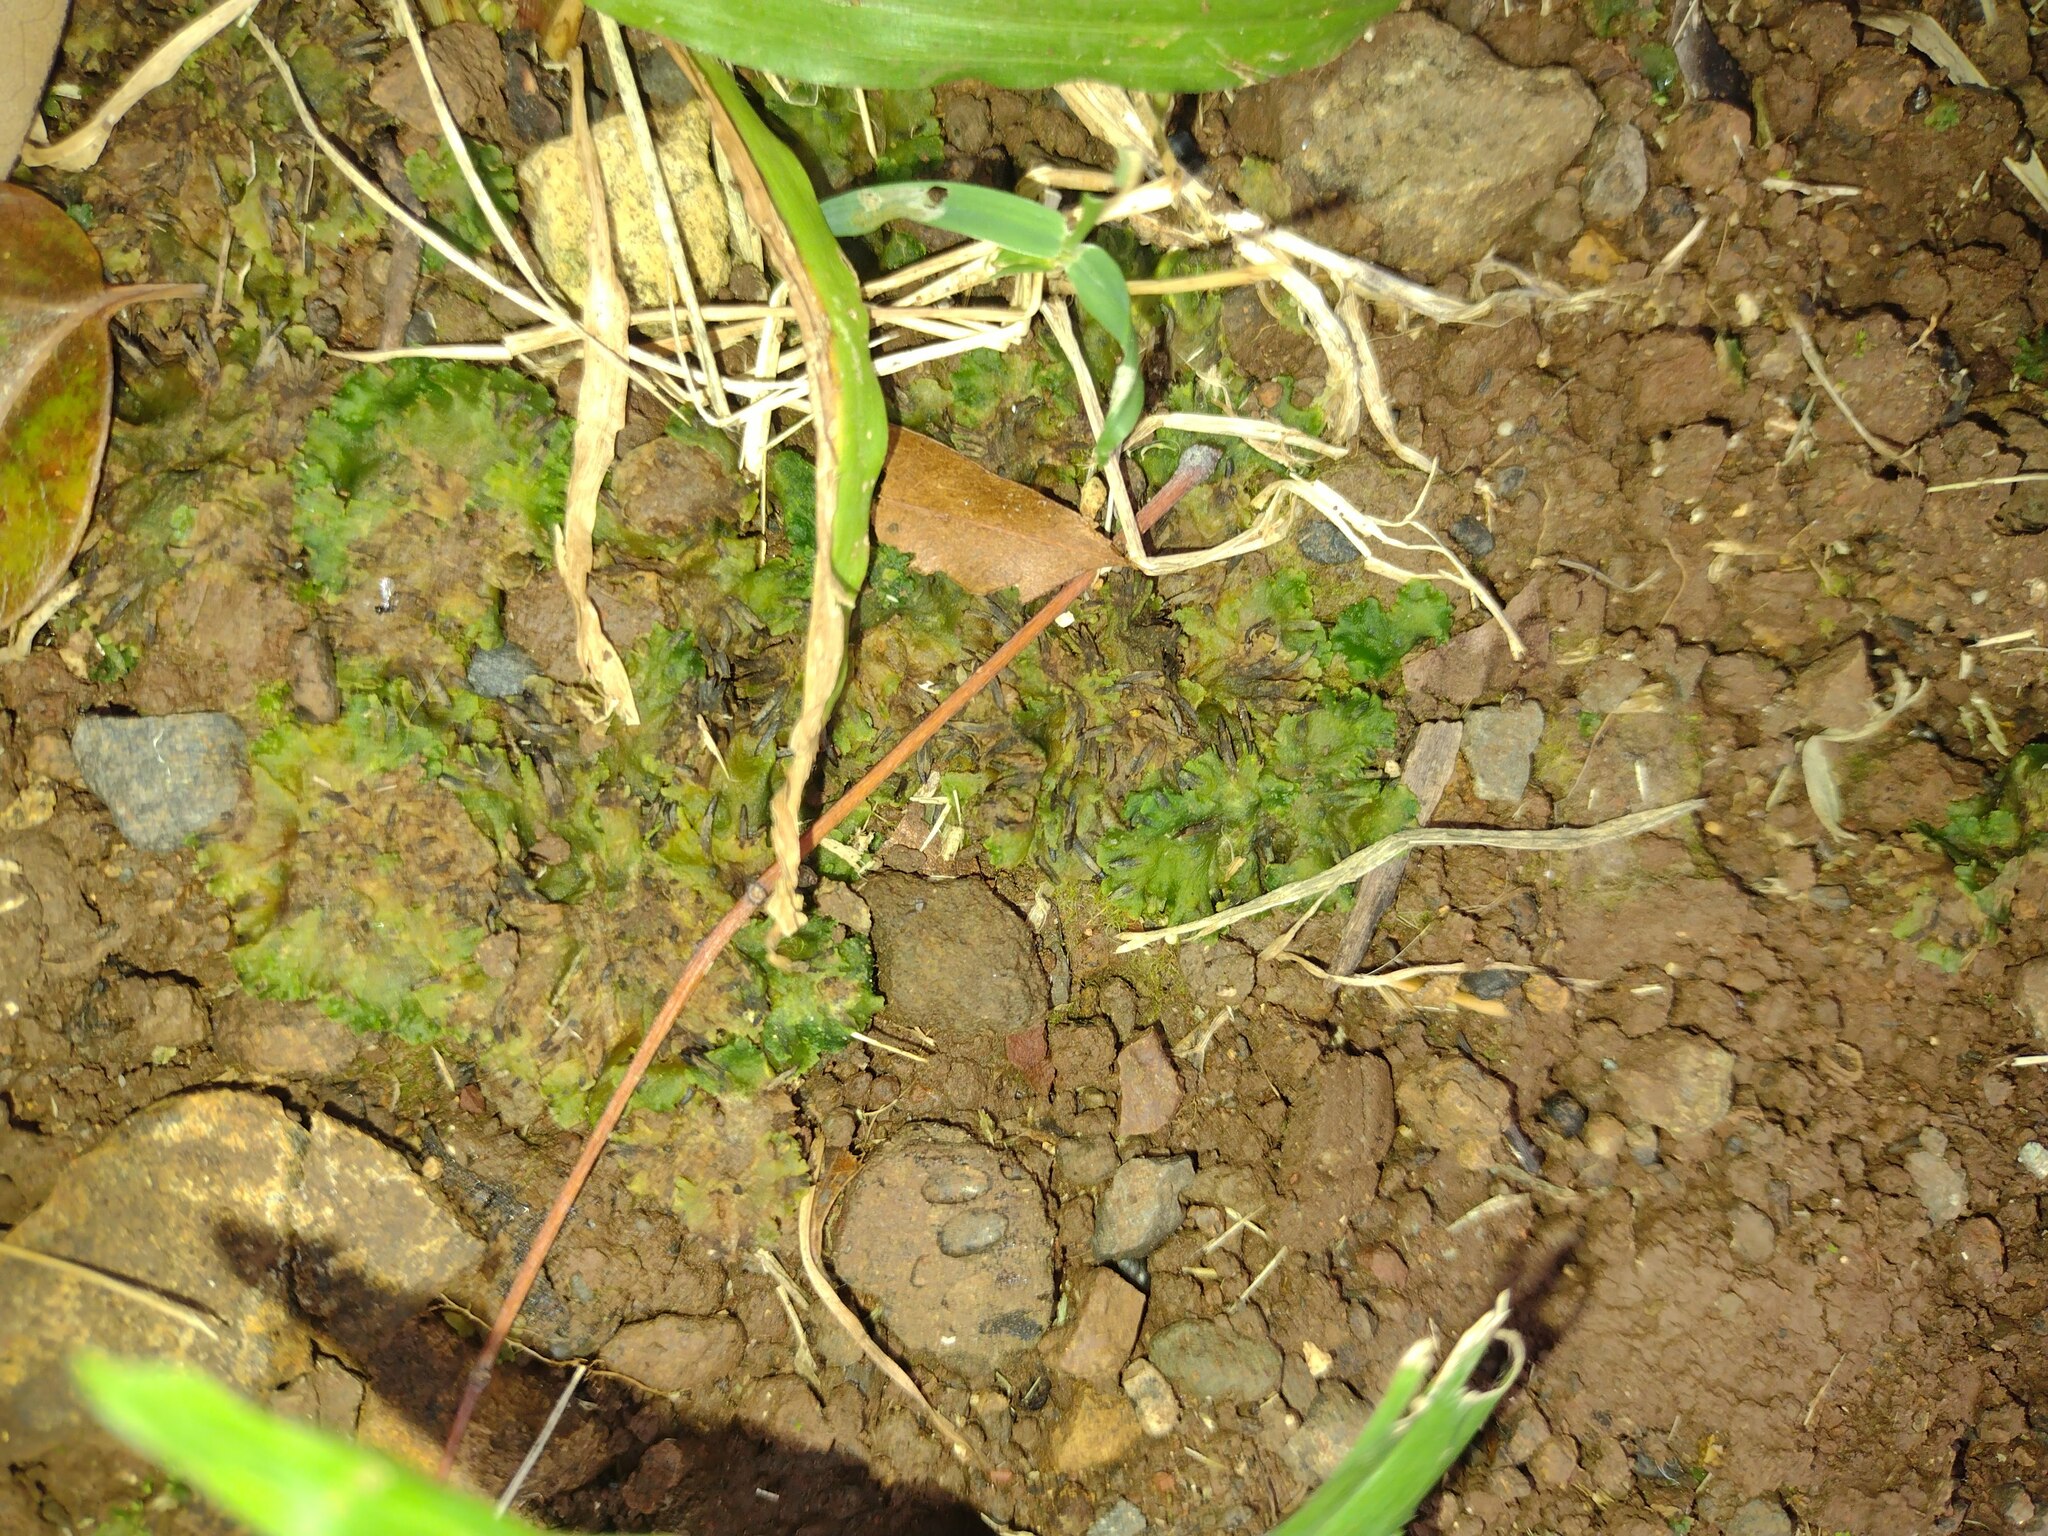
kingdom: Plantae
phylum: Anthocerotophyta
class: Anthocerotopsida
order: Notothyladales
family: Notothyladaceae
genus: Notothylas
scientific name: Notothylas breutelii
